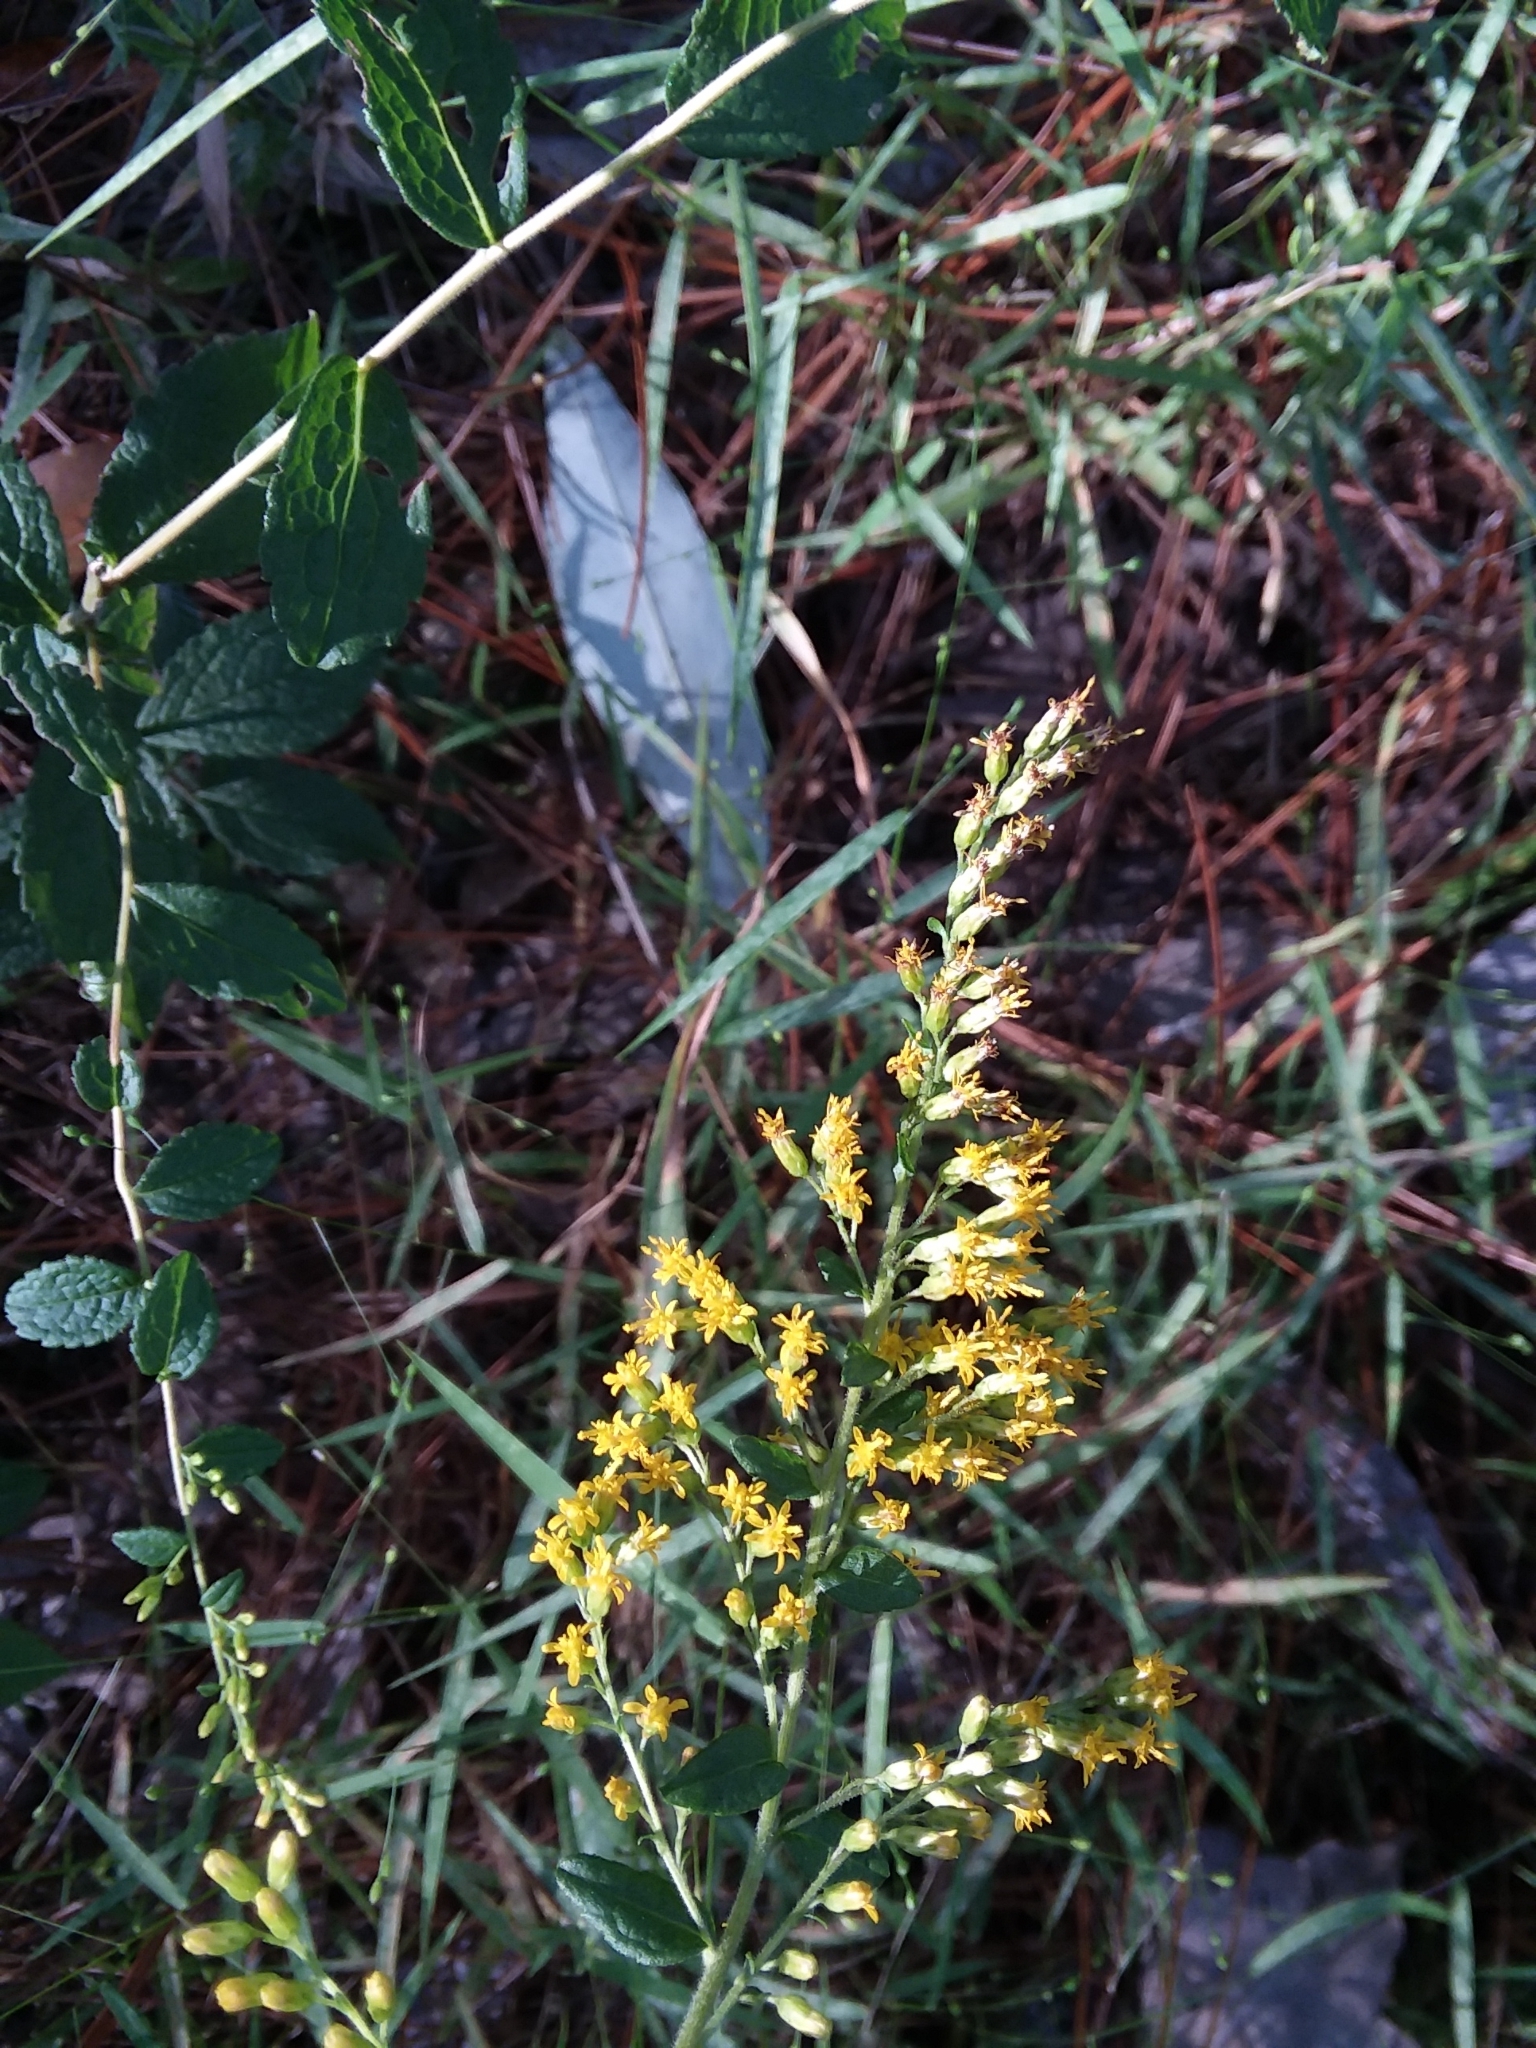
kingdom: Plantae
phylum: Tracheophyta
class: Magnoliopsida
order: Asterales
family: Asteraceae
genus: Solidago
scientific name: Solidago rugosa
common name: Rough-stemmed goldenrod
